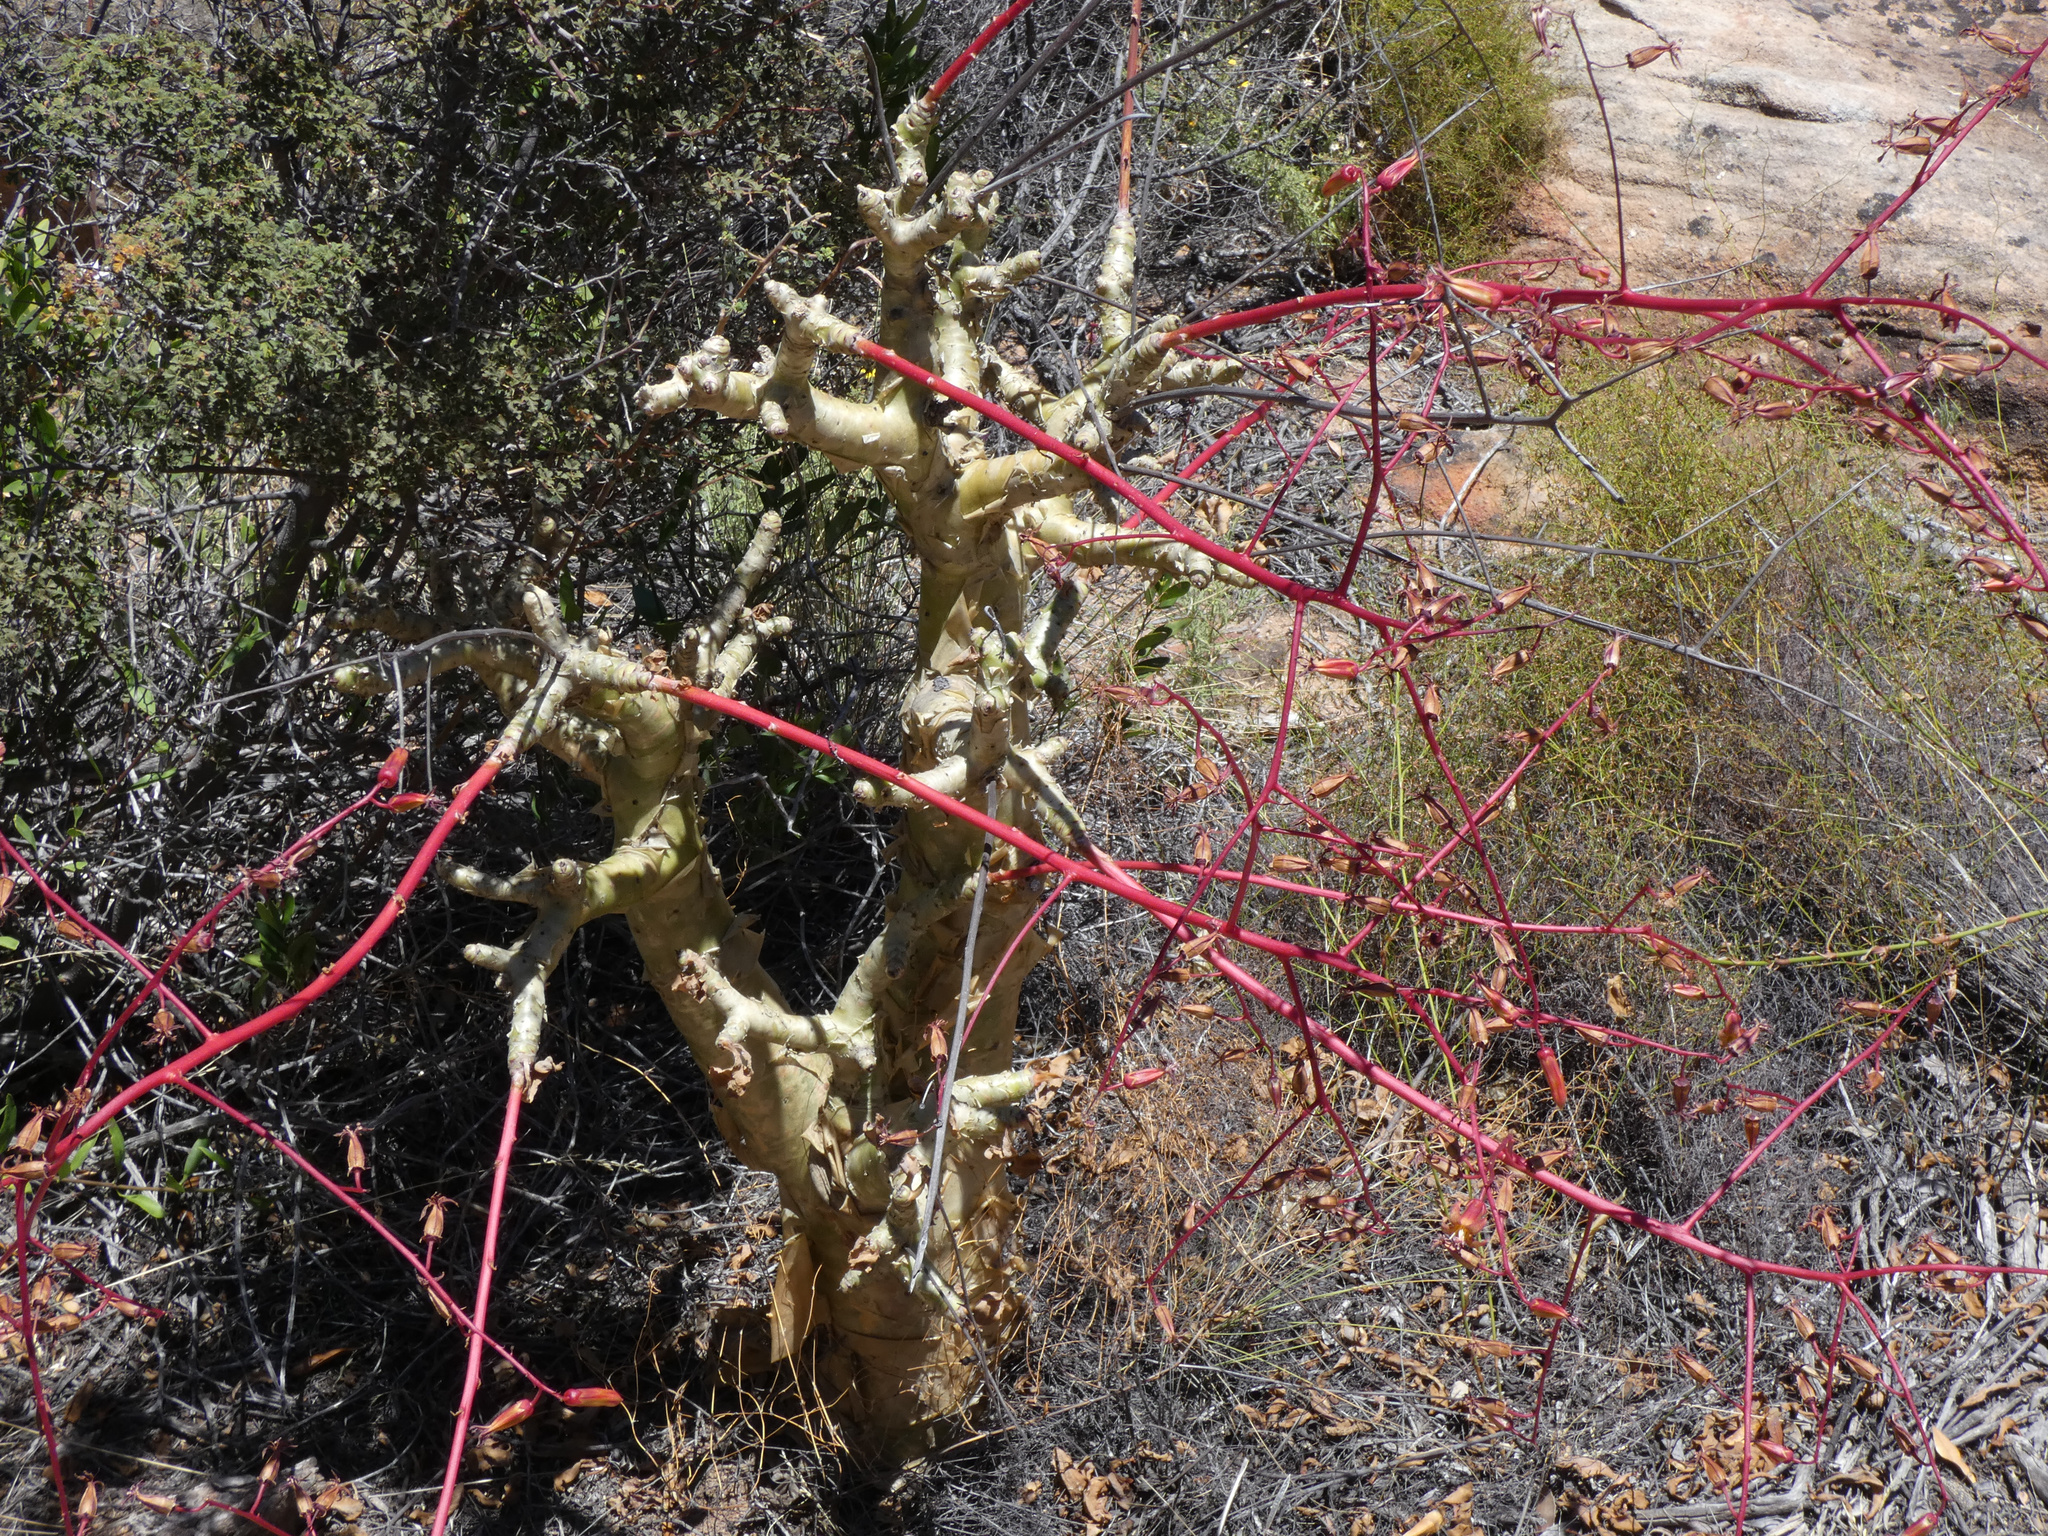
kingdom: Plantae
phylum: Tracheophyta
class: Magnoliopsida
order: Saxifragales
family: Crassulaceae
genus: Tylecodon
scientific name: Tylecodon paniculatus
